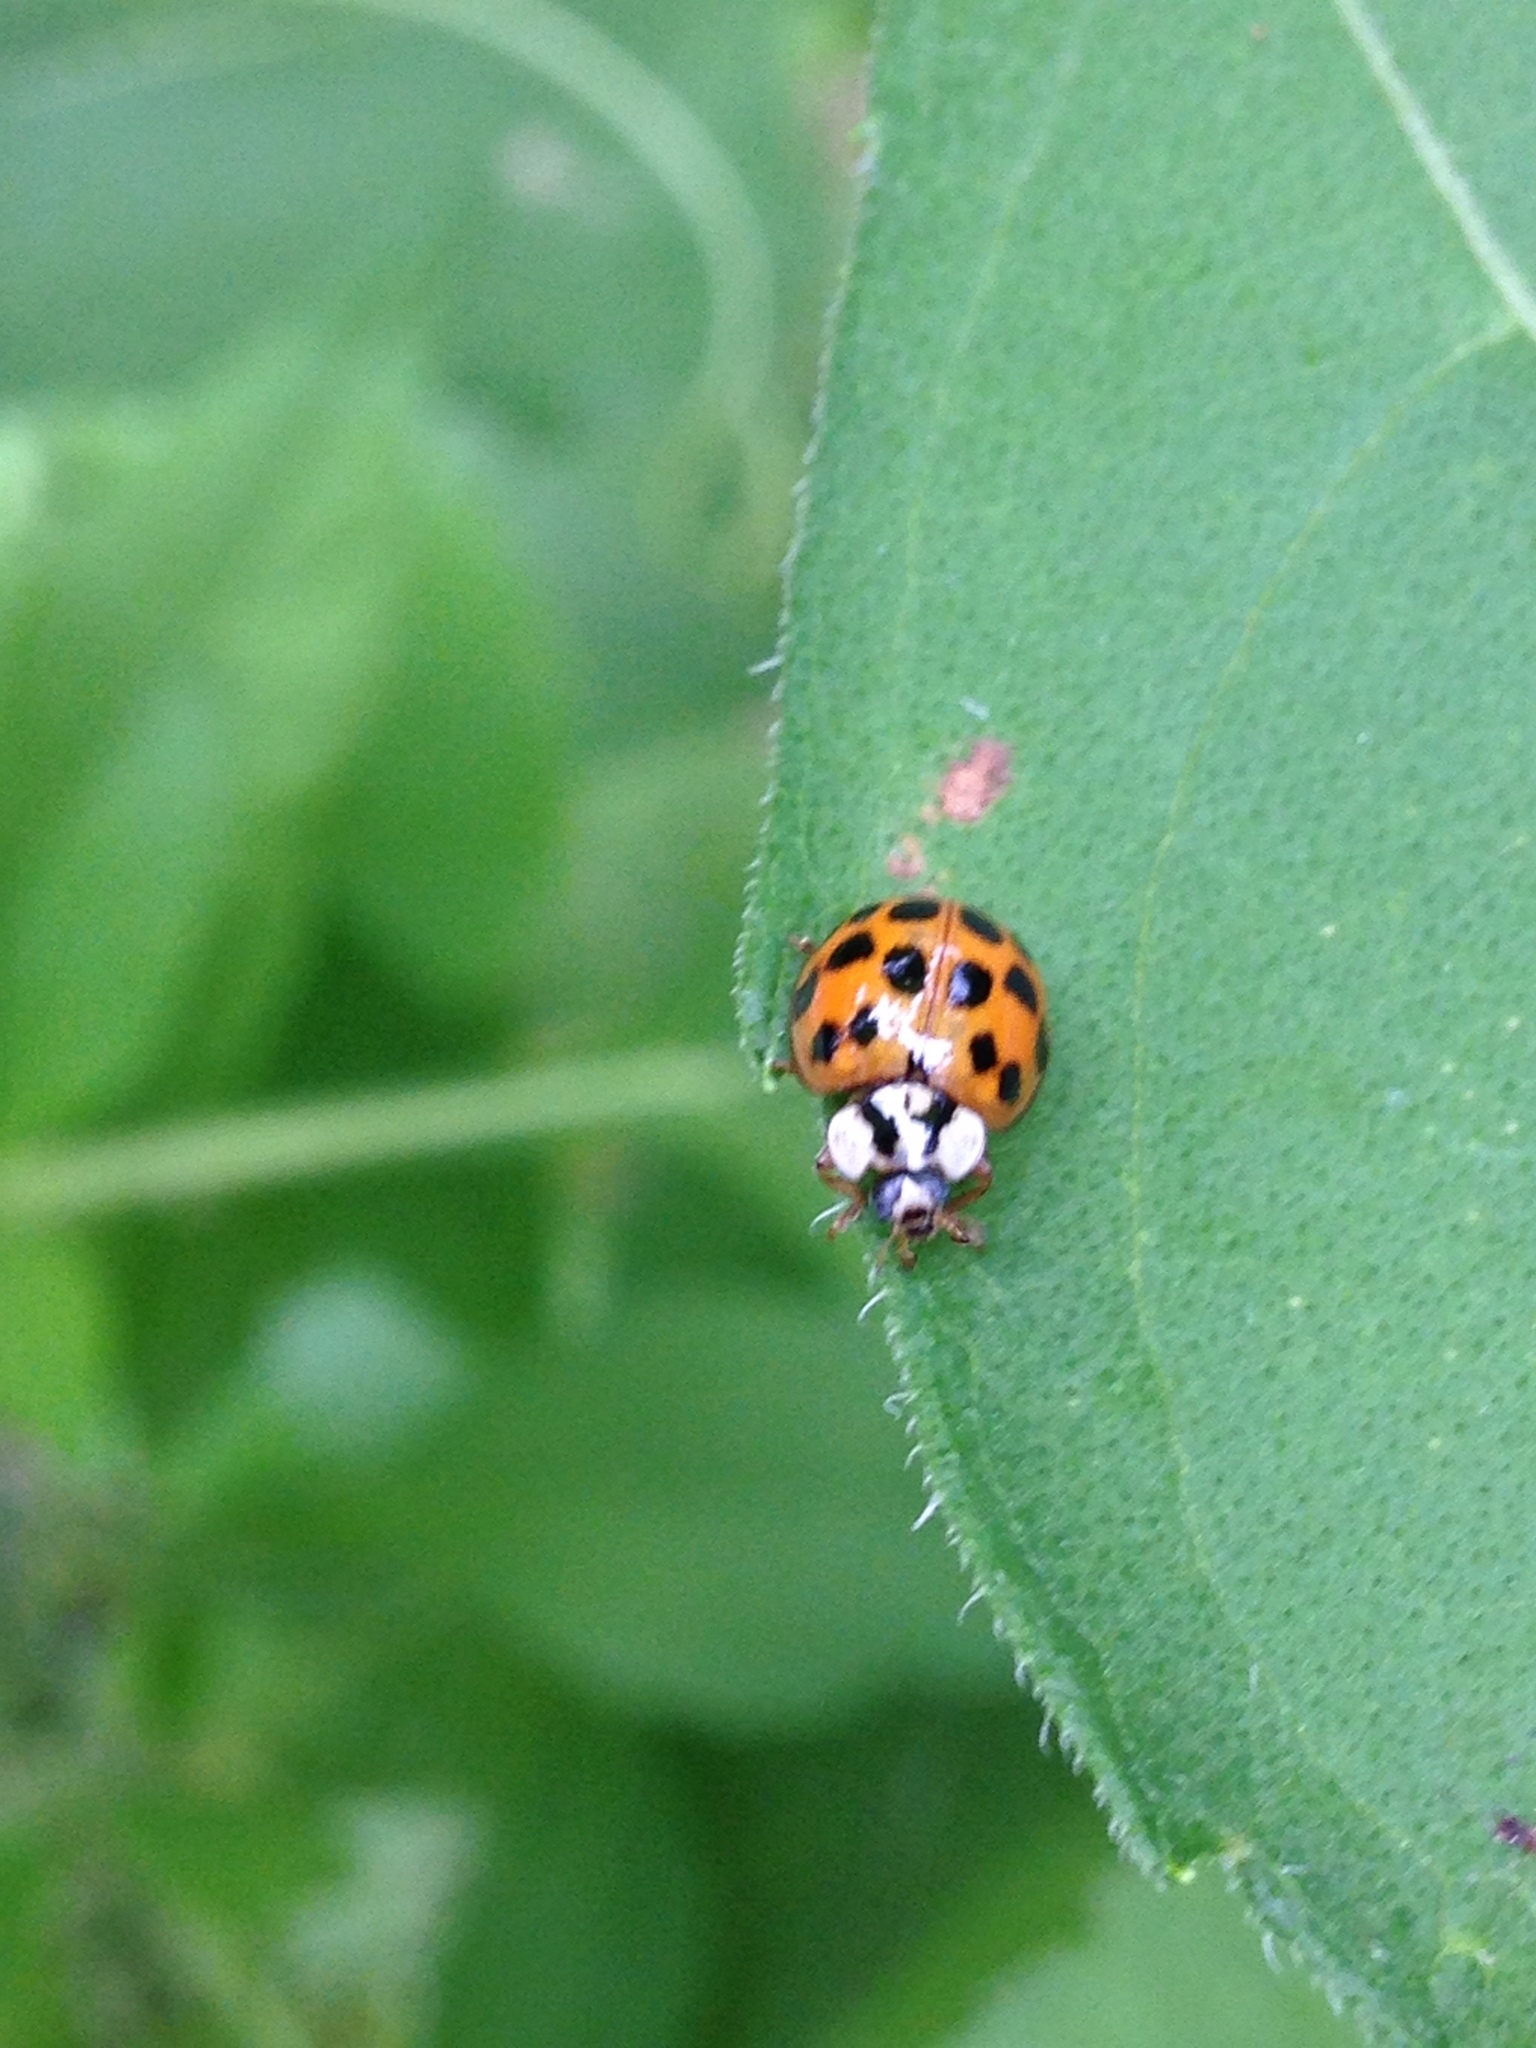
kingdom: Animalia
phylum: Arthropoda
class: Insecta
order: Coleoptera
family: Coccinellidae
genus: Harmonia
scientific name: Harmonia axyridis
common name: Harlequin ladybird
